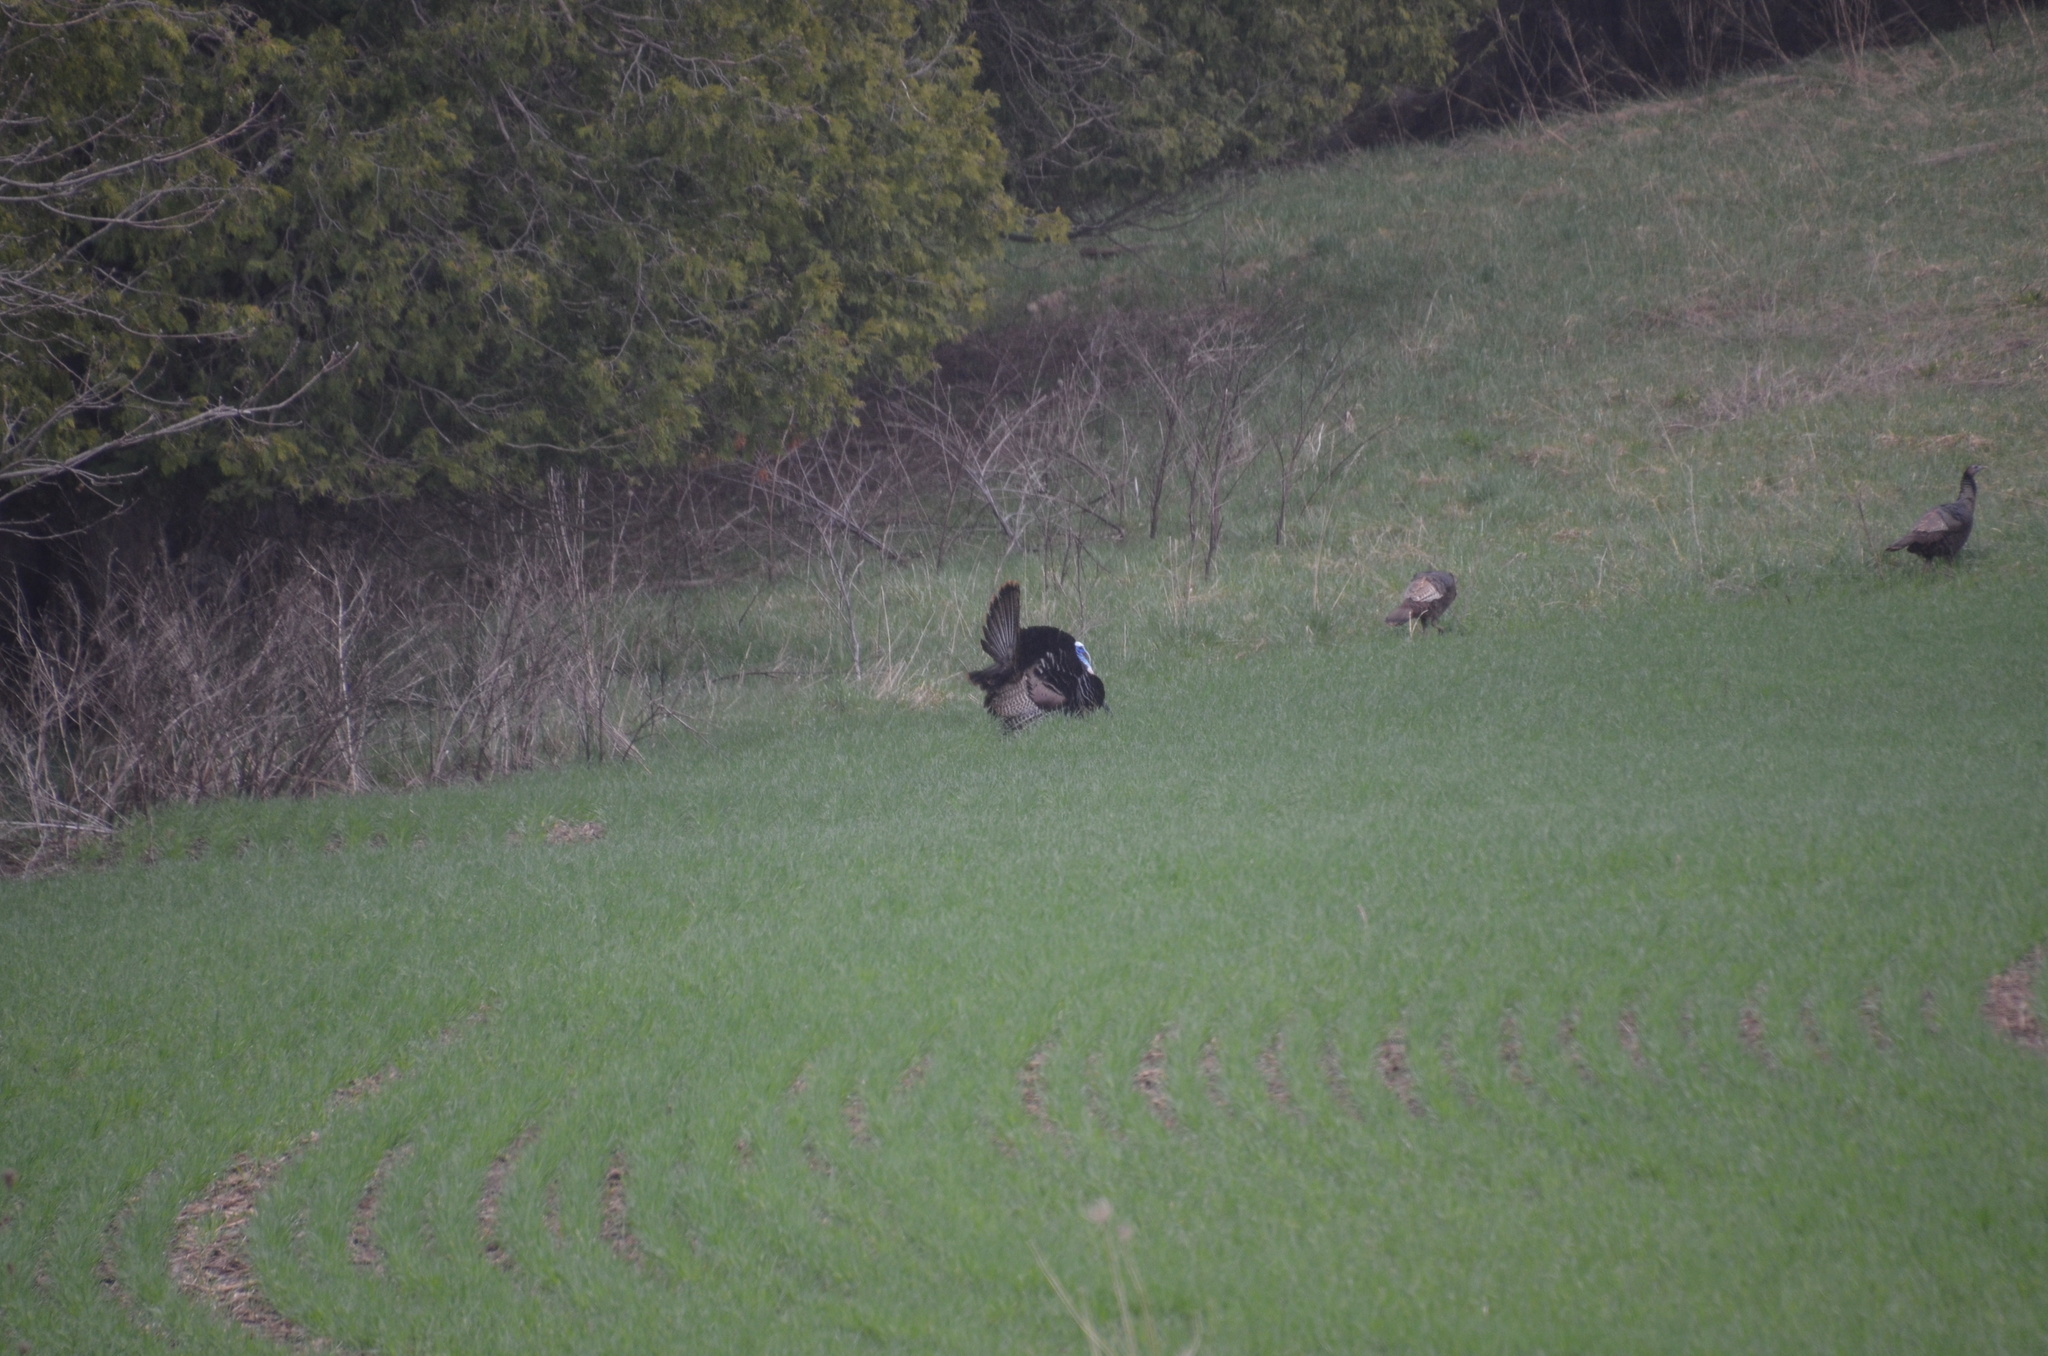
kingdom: Animalia
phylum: Chordata
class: Aves
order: Galliformes
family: Phasianidae
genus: Meleagris
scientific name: Meleagris gallopavo
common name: Wild turkey
